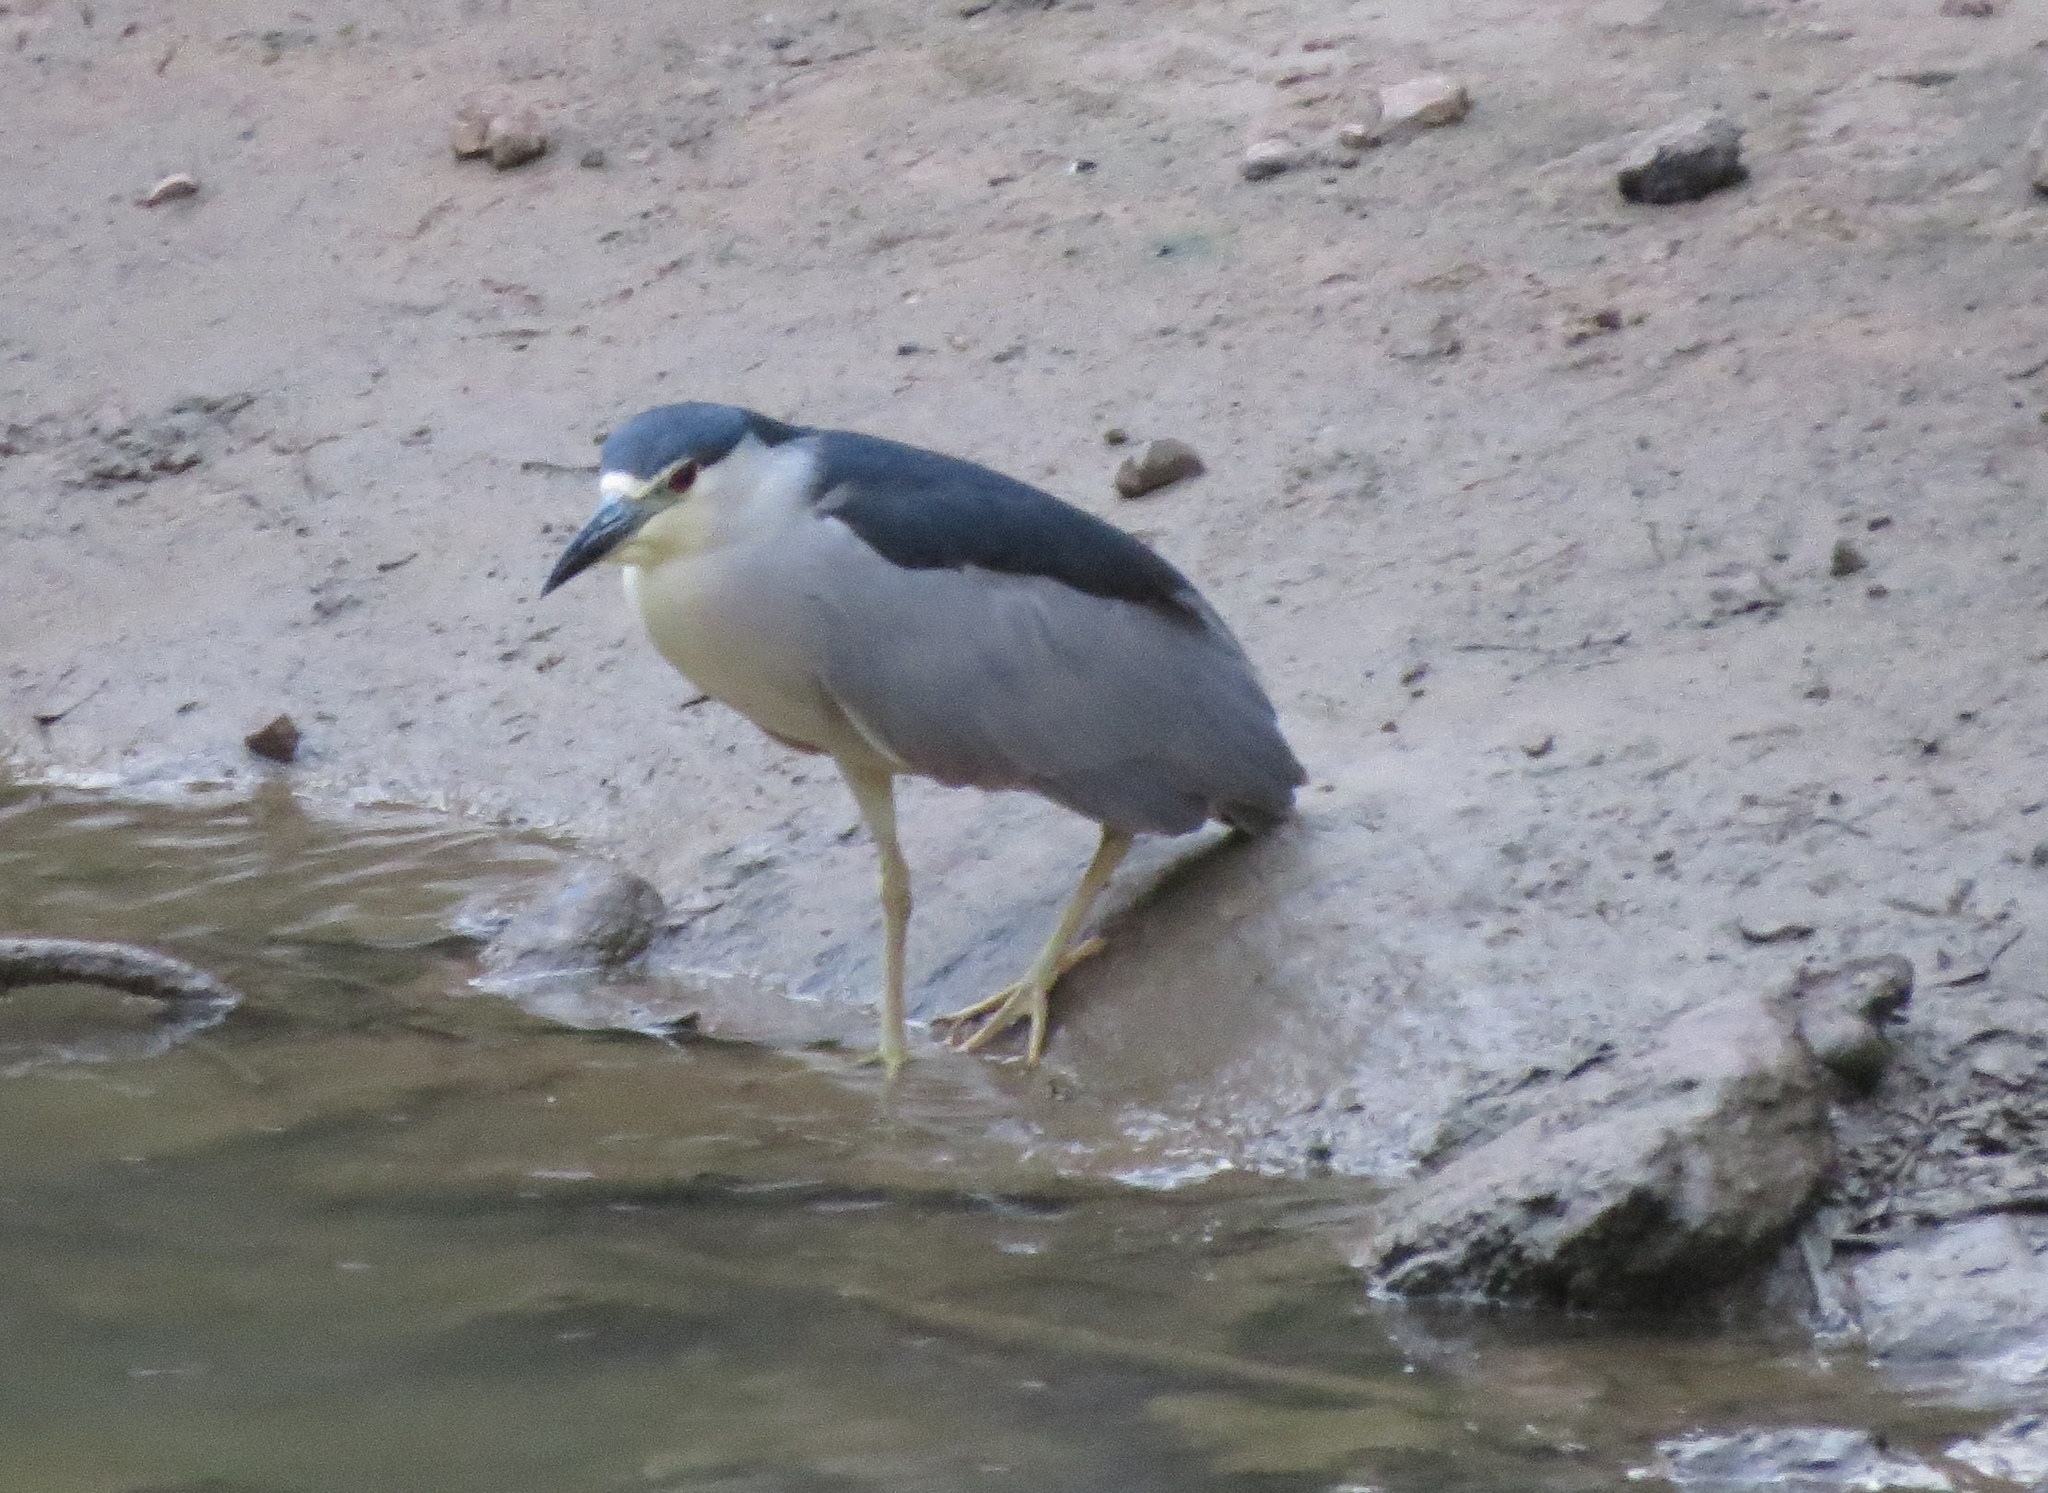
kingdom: Animalia
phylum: Chordata
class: Aves
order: Pelecaniformes
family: Ardeidae
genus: Nycticorax
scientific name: Nycticorax nycticorax
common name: Black-crowned night heron
